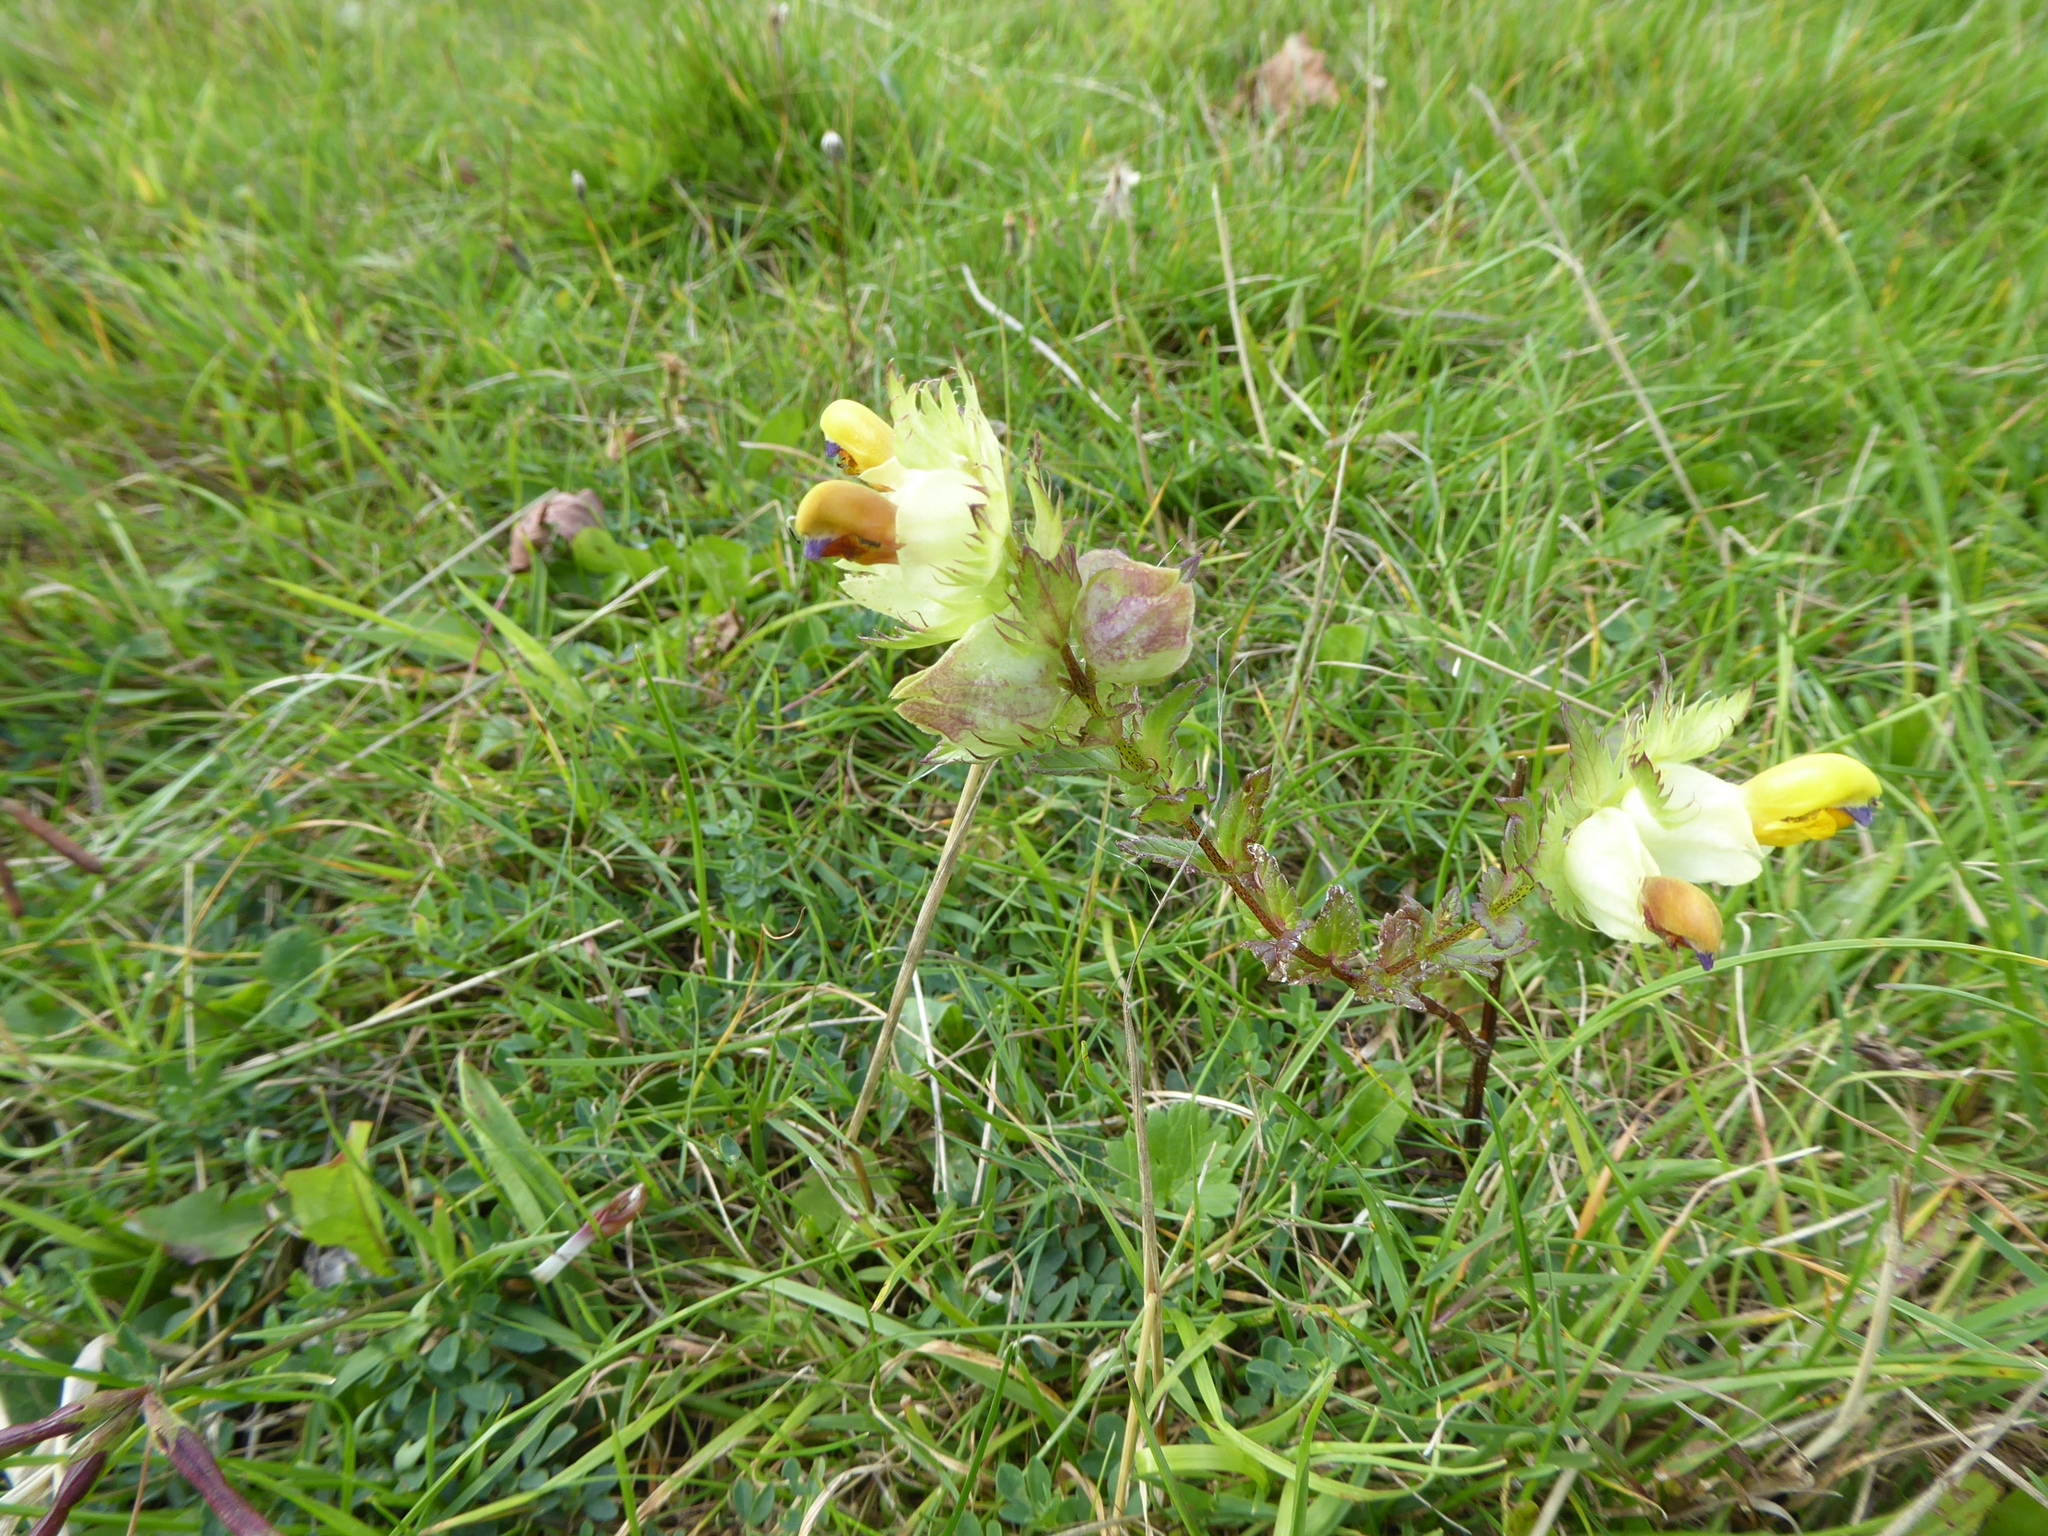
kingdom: Plantae
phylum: Tracheophyta
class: Magnoliopsida
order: Lamiales
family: Orobanchaceae
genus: Rhinanthus
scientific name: Rhinanthus minor
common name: Yellow-rattle
